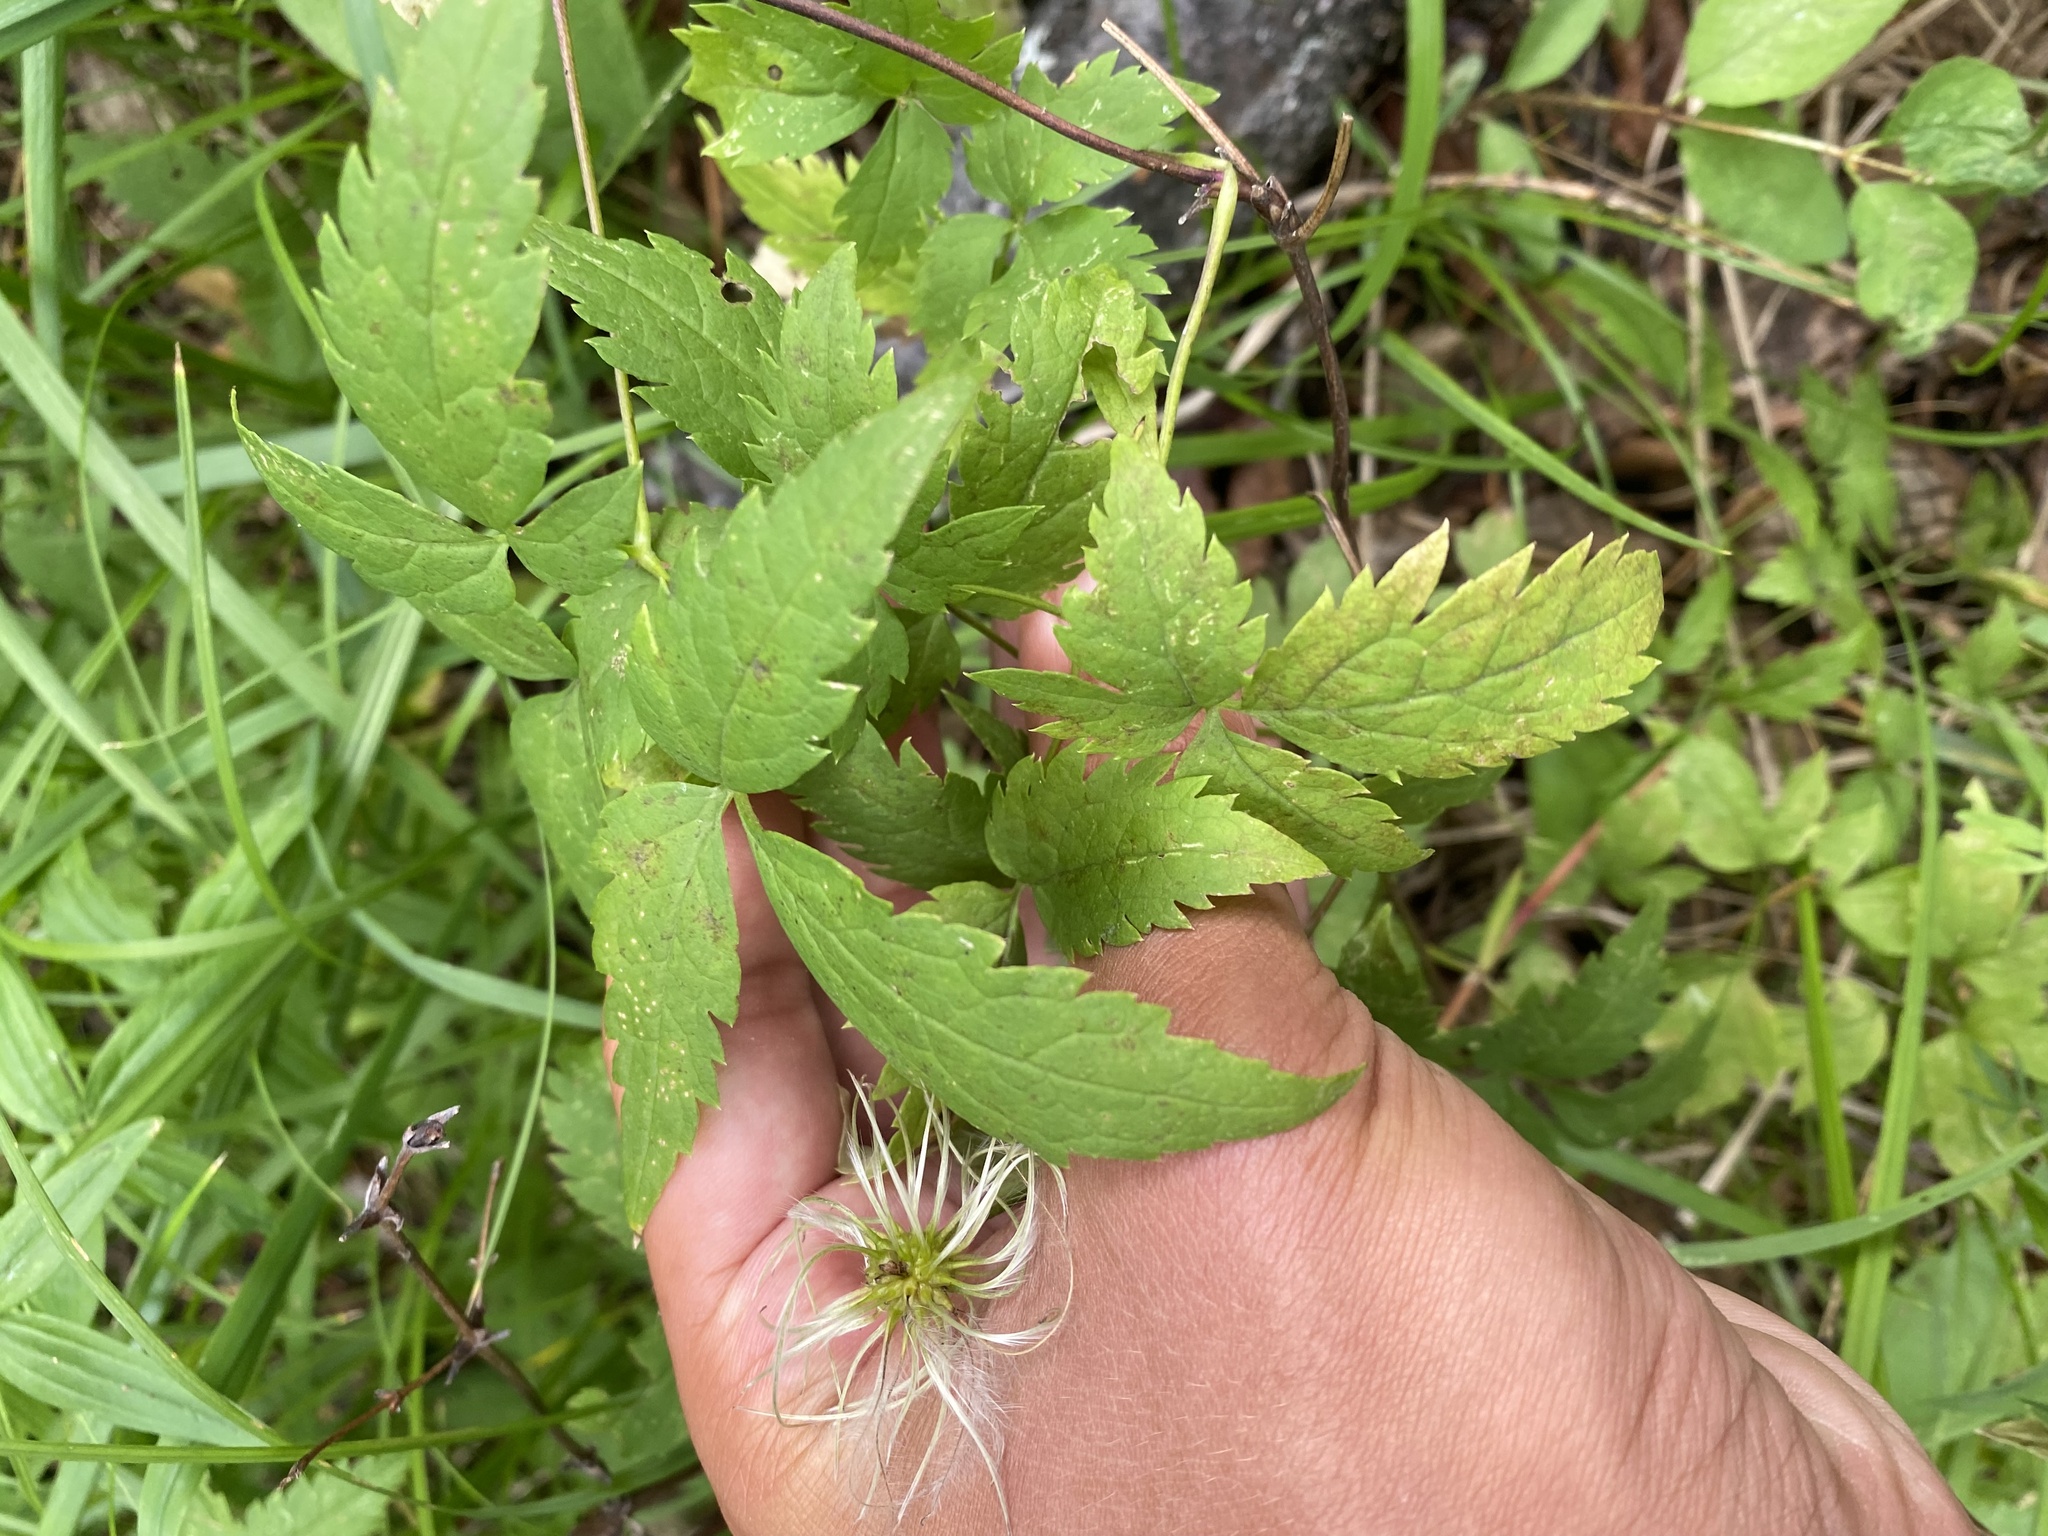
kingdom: Plantae
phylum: Tracheophyta
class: Magnoliopsida
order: Ranunculales
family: Ranunculaceae
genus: Clematis
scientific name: Clematis sibirica
